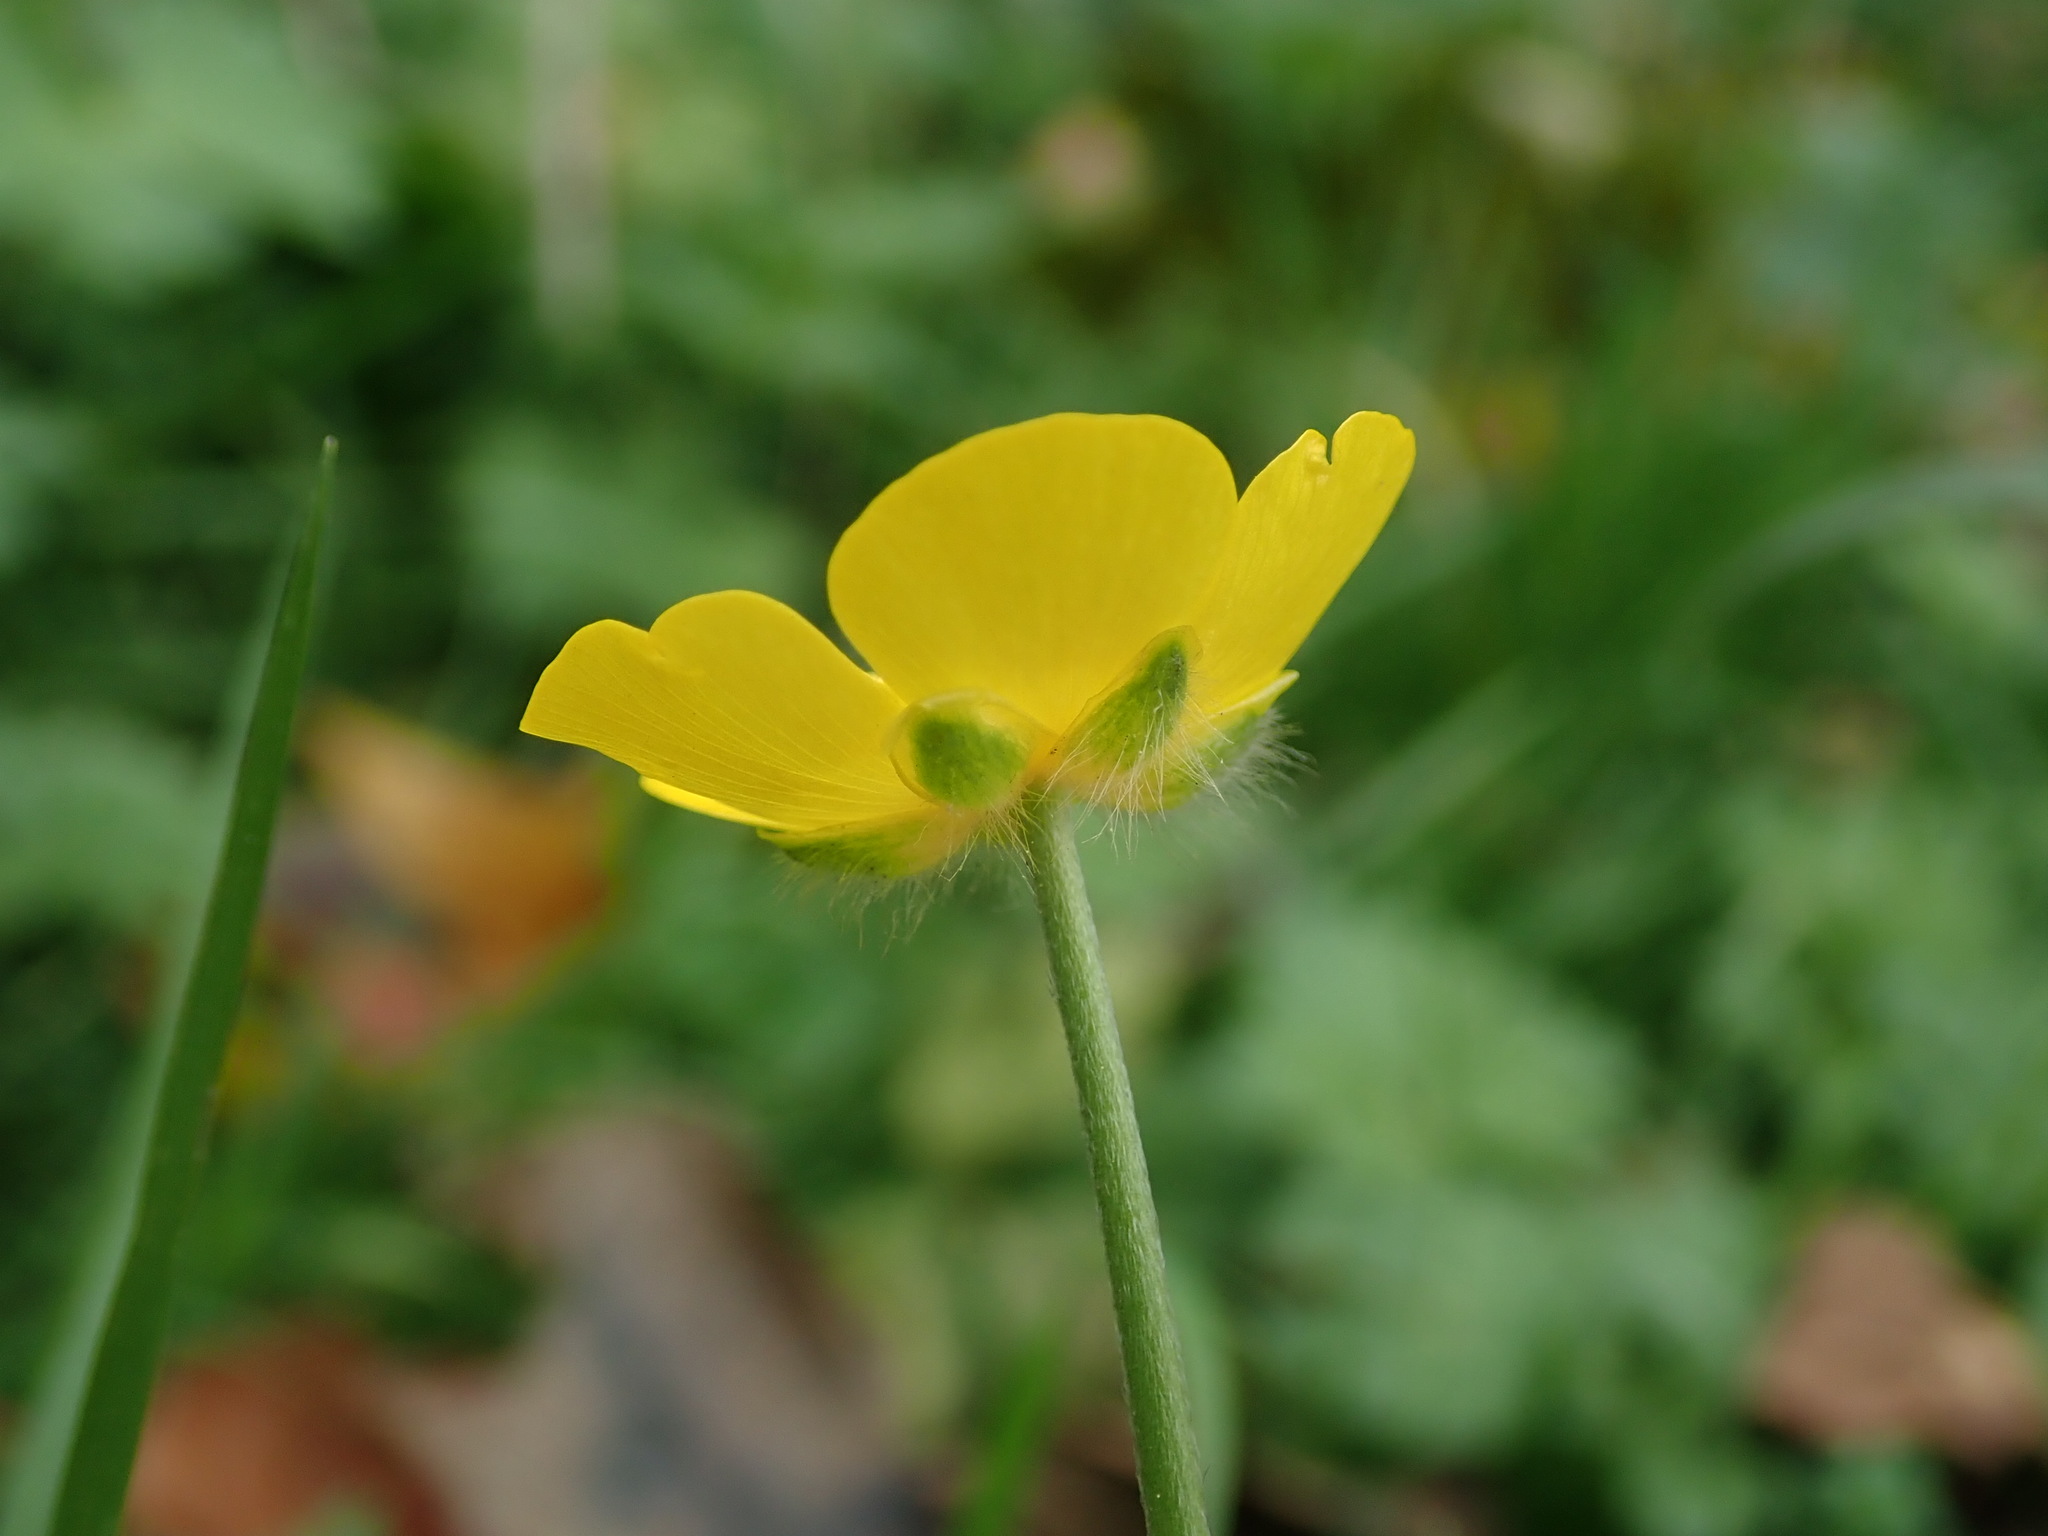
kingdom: Plantae
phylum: Tracheophyta
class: Magnoliopsida
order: Ranunculales
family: Ranunculaceae
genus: Ranunculus
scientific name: Ranunculus acris
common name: Meadow buttercup
